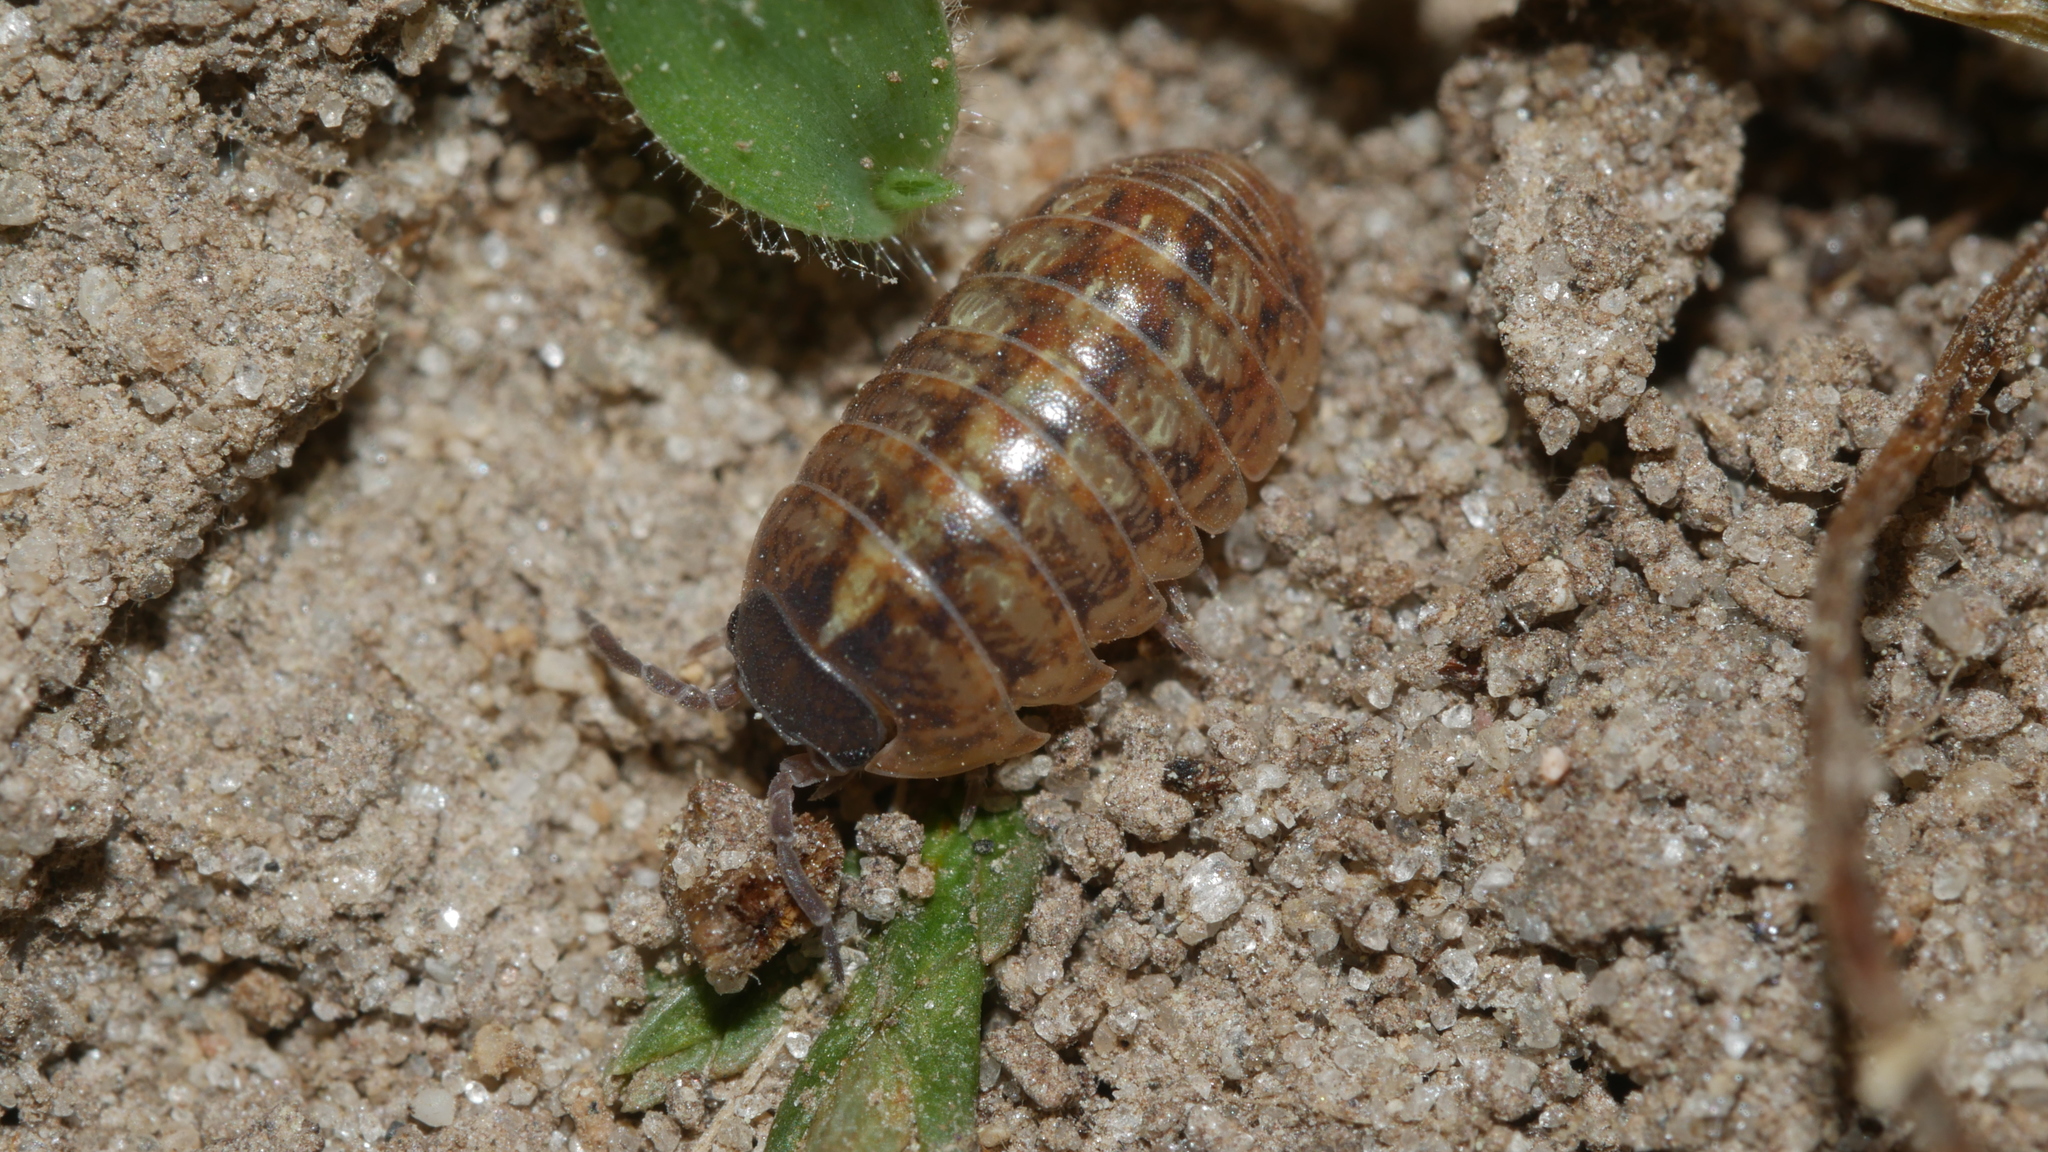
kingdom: Animalia
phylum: Arthropoda
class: Malacostraca
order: Isopoda
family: Armadillidiidae
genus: Armadillidium
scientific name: Armadillidium vulgare
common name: Common pill woodlouse
